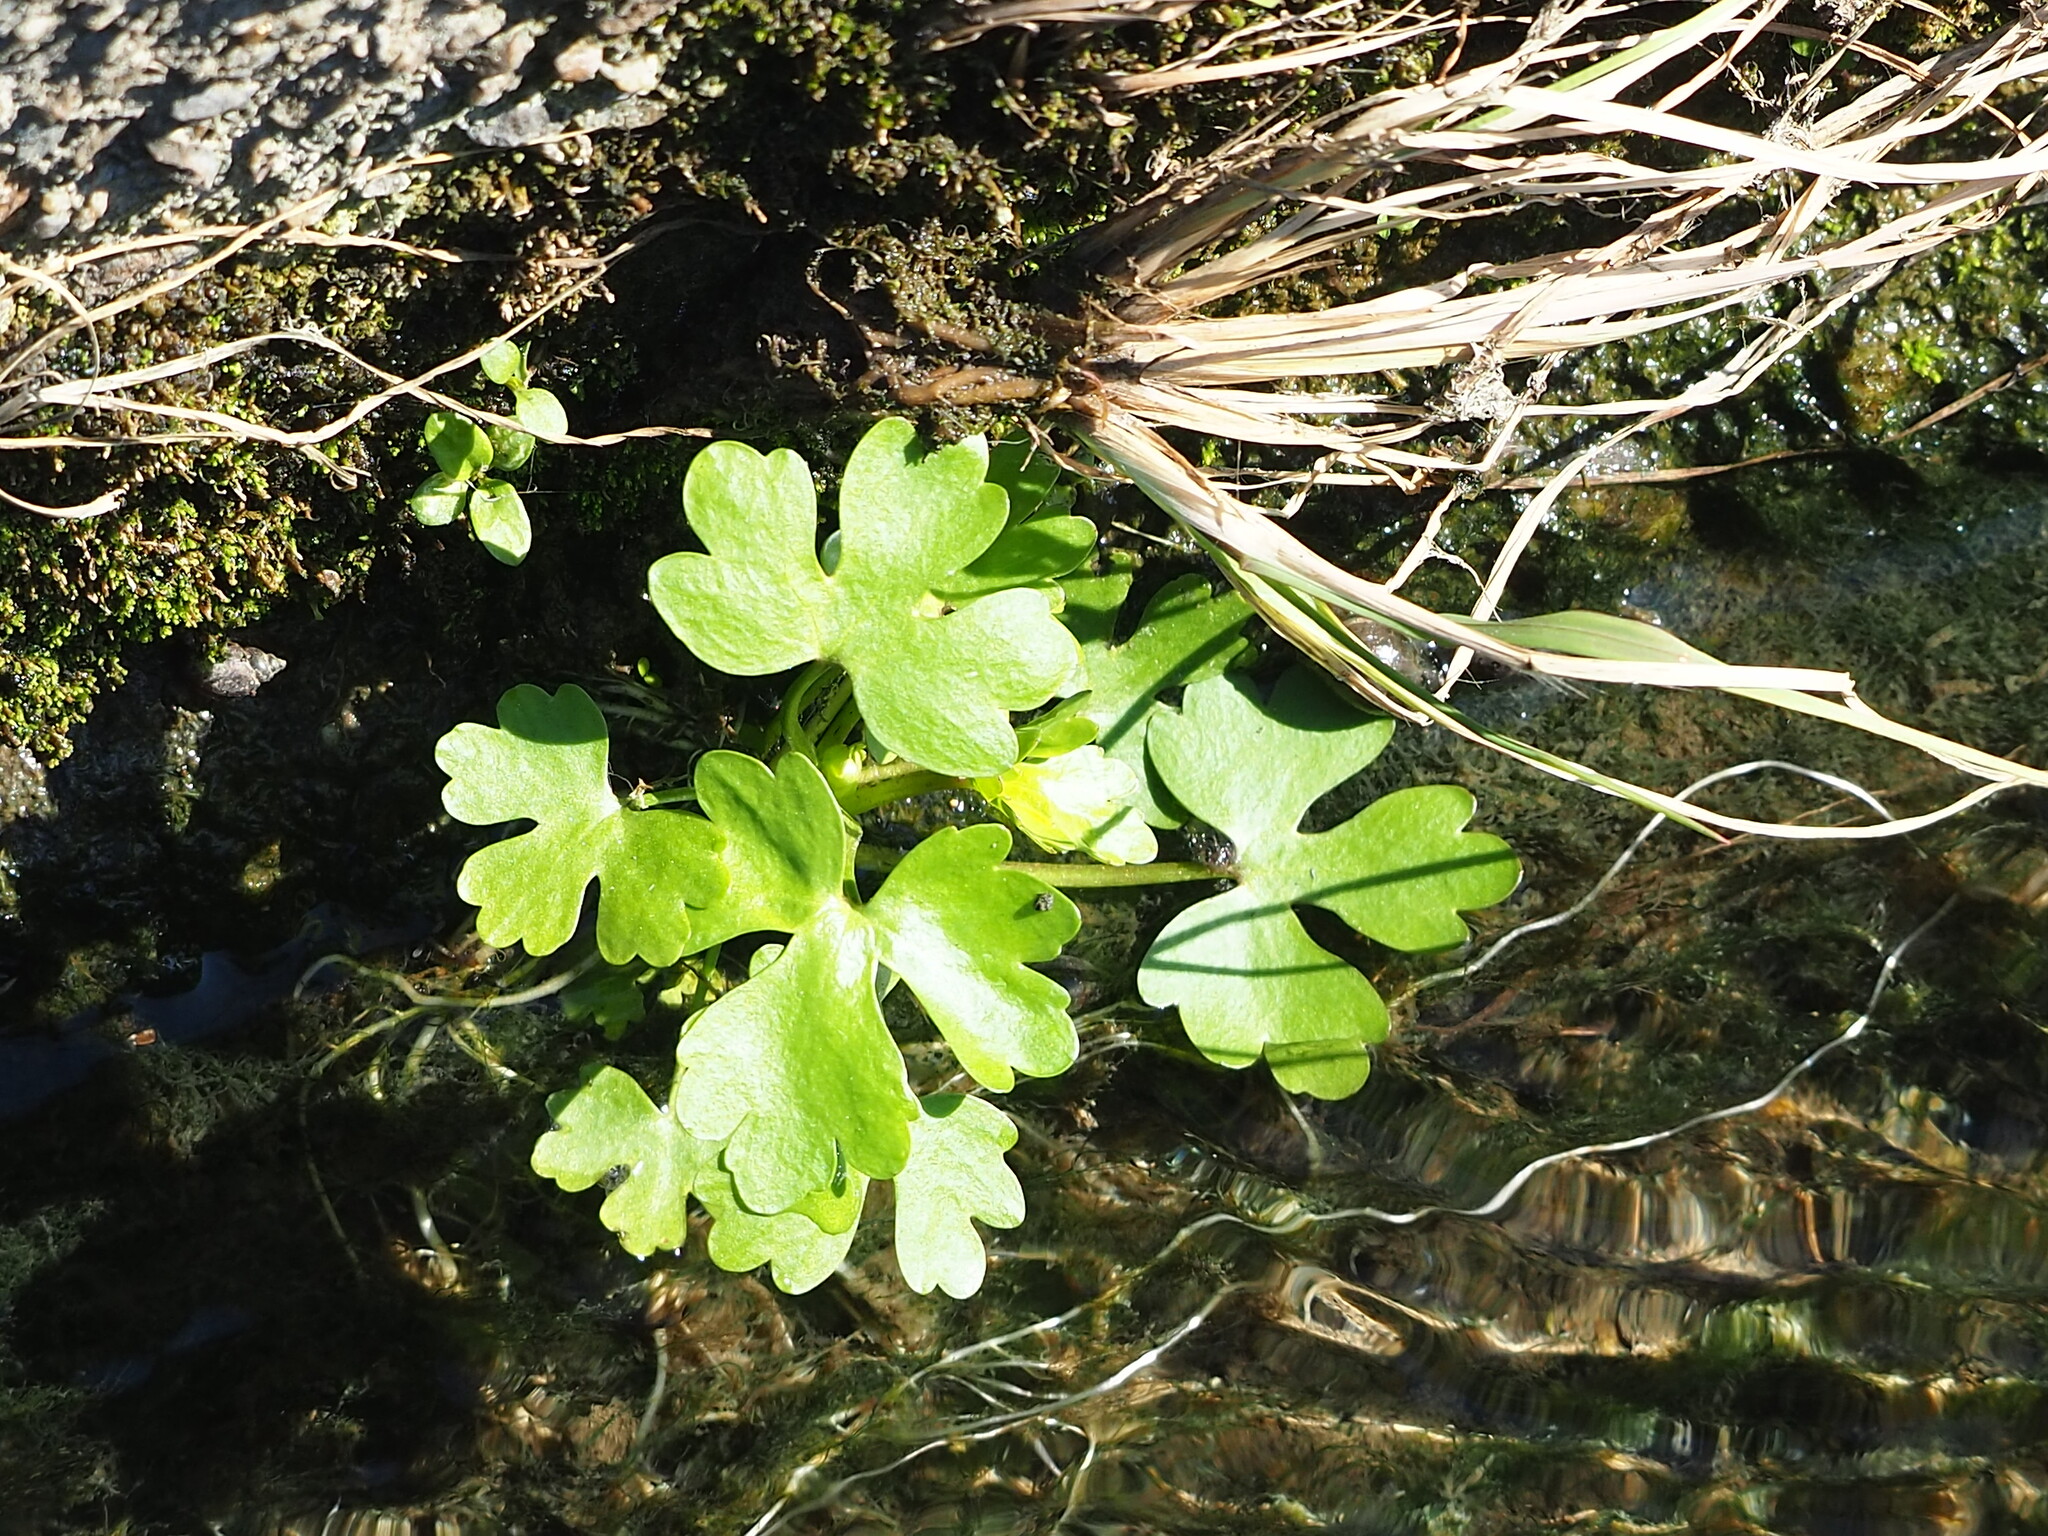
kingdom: Plantae
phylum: Tracheophyta
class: Magnoliopsida
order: Ranunculales
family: Ranunculaceae
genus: Ranunculus
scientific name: Ranunculus sceleratus
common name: Celery-leaved buttercup
